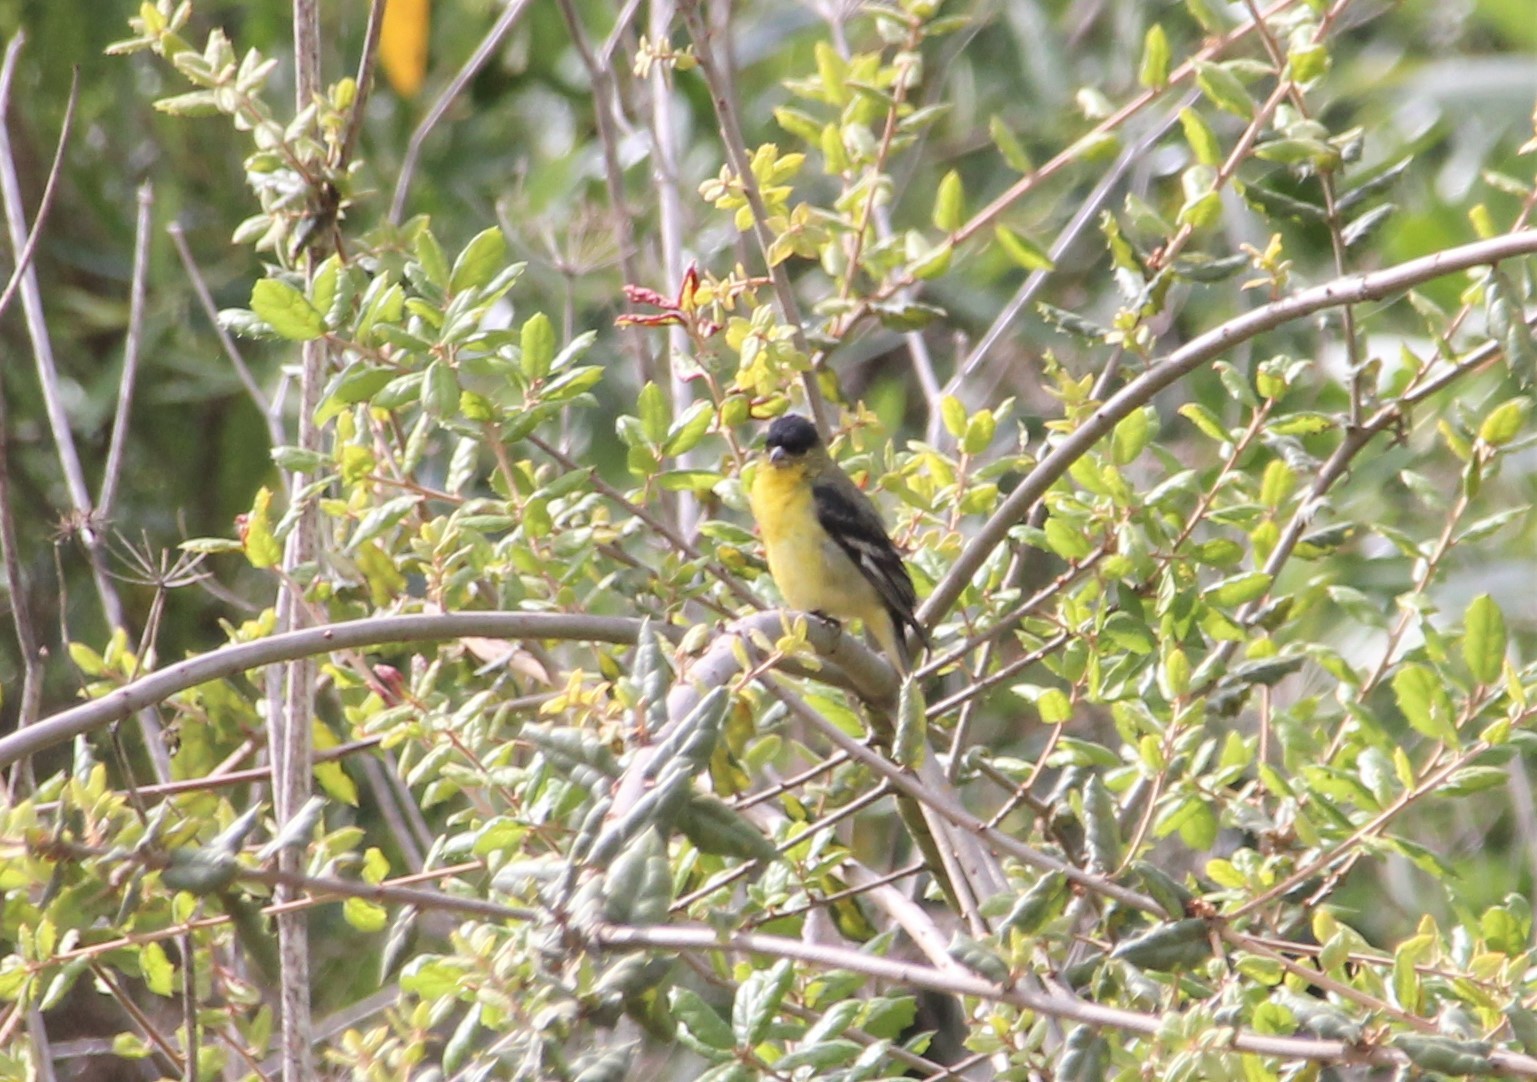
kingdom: Animalia
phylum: Chordata
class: Aves
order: Passeriformes
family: Fringillidae
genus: Spinus
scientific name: Spinus psaltria
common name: Lesser goldfinch
